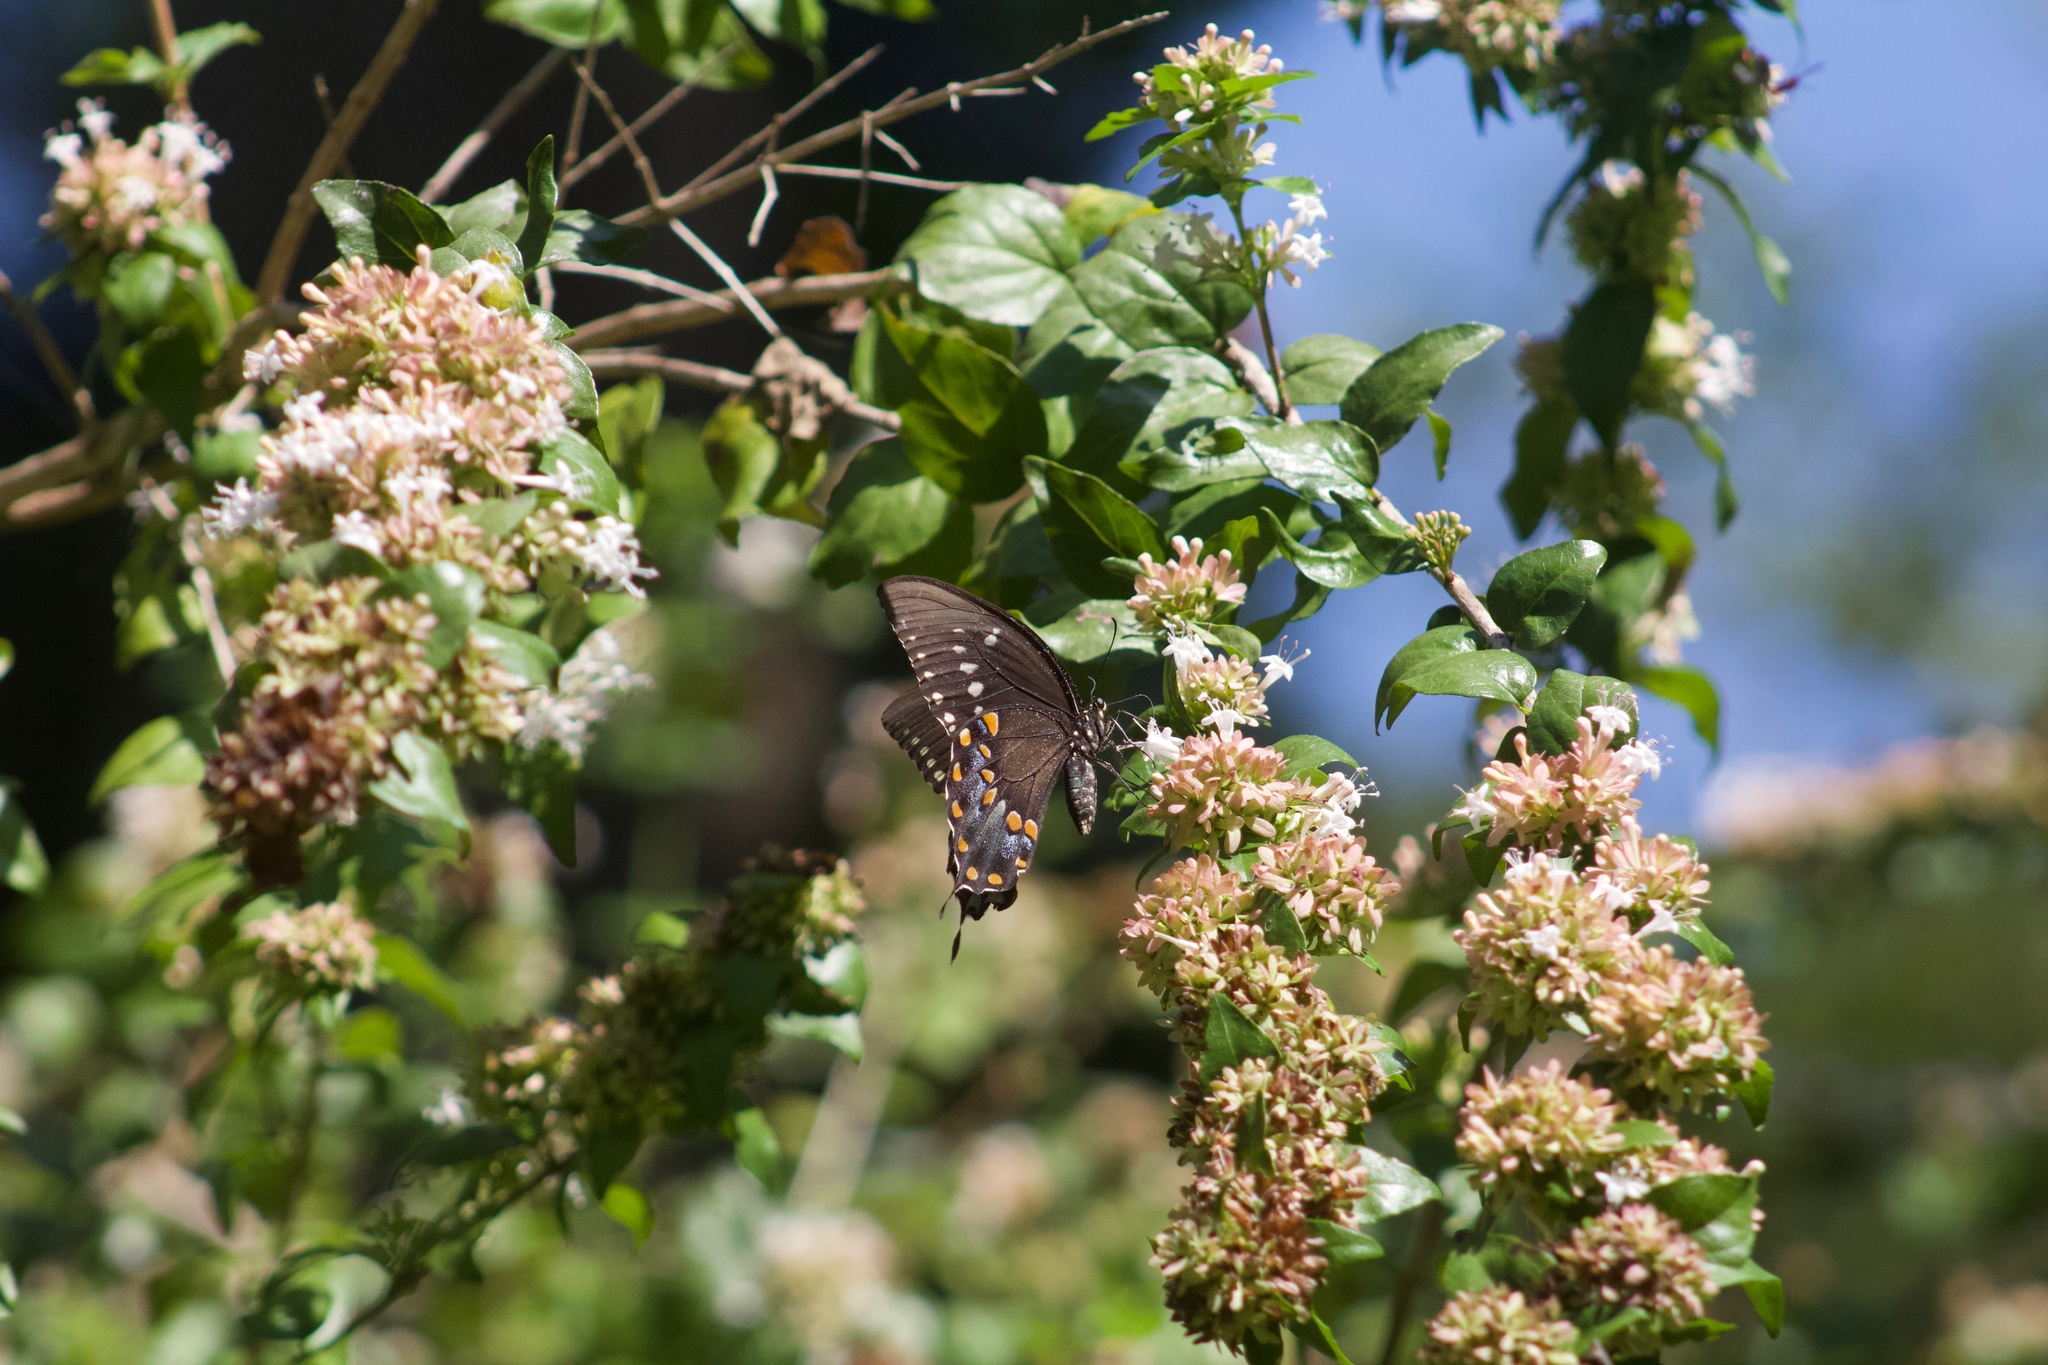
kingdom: Animalia
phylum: Arthropoda
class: Insecta
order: Lepidoptera
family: Papilionidae
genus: Papilio
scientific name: Papilio troilus
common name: Spicebush swallowtail
